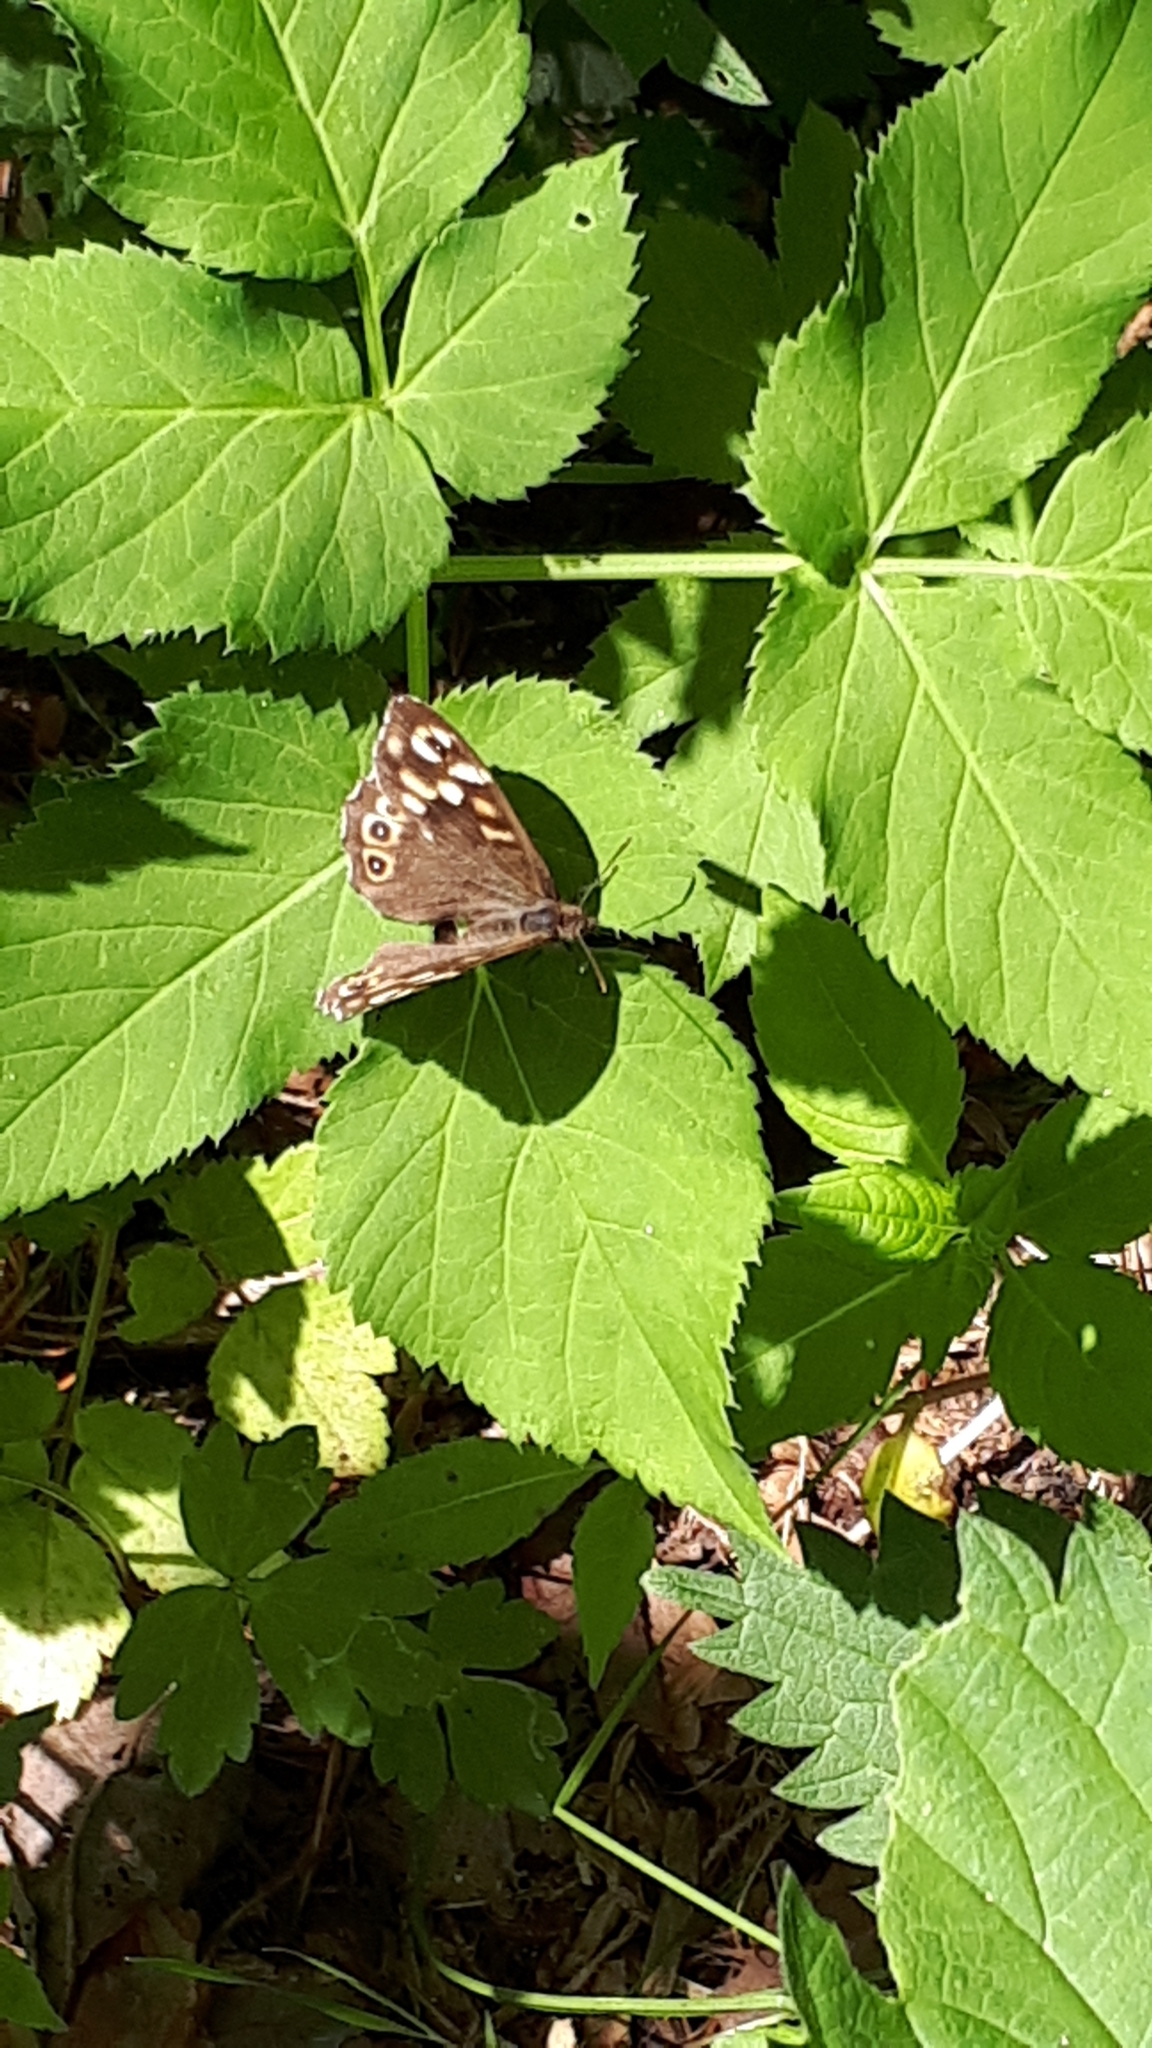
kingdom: Animalia
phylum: Arthropoda
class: Insecta
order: Lepidoptera
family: Nymphalidae
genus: Pararge
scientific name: Pararge aegeria
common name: Speckled wood
